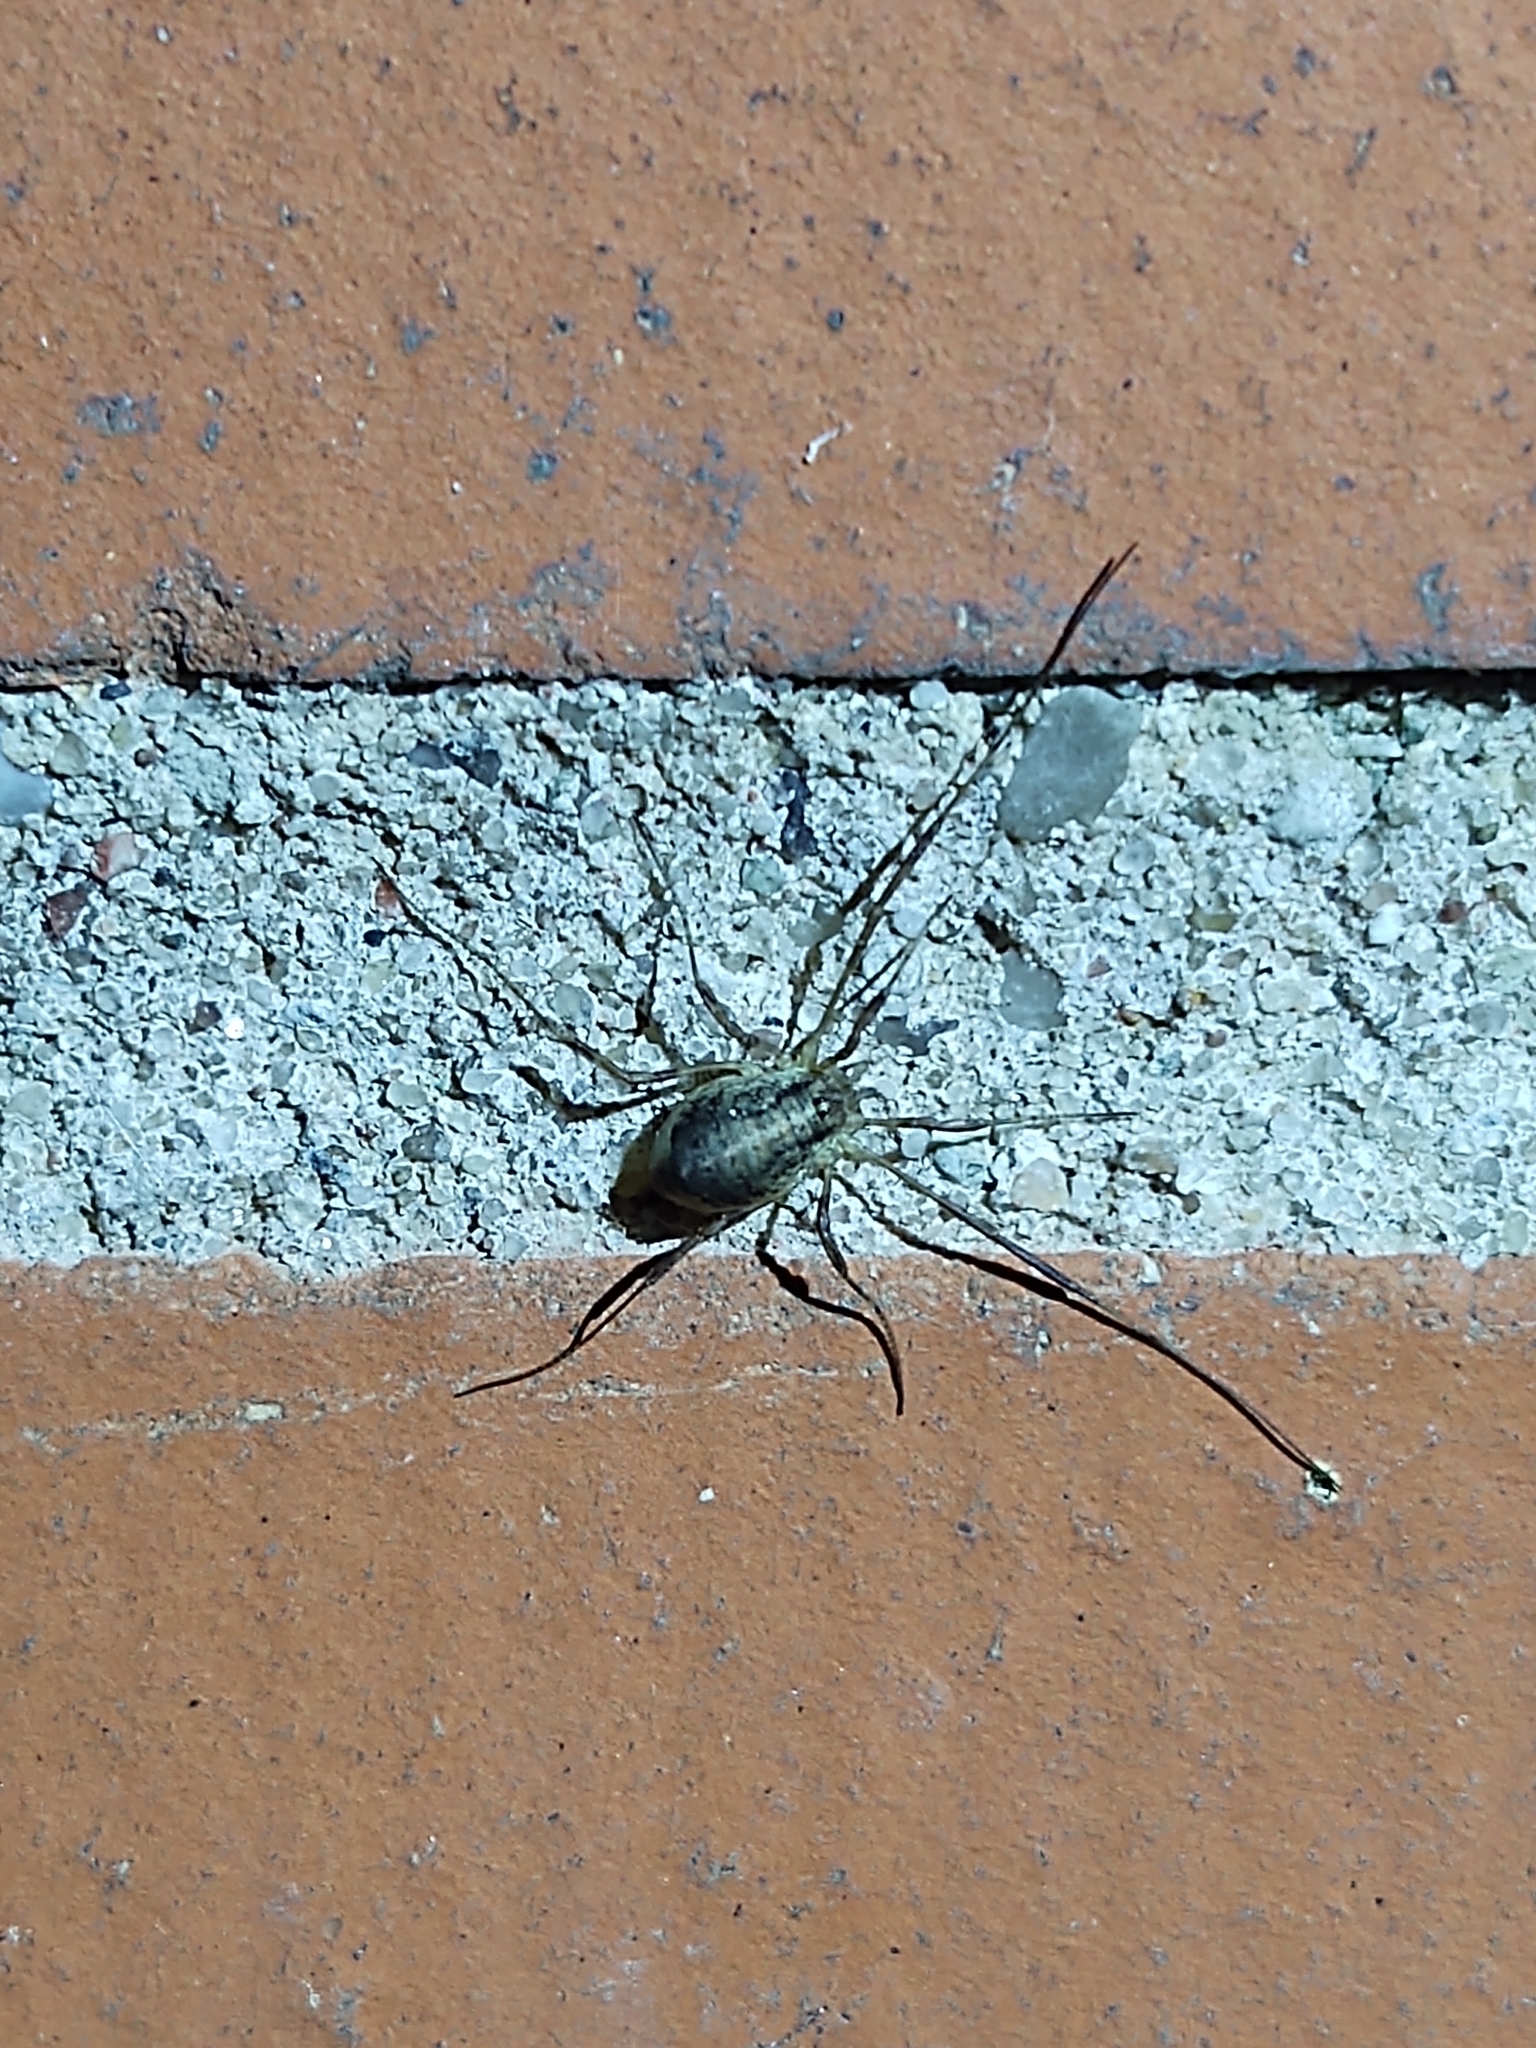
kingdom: Animalia
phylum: Arthropoda
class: Arachnida
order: Opiliones
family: Phalangiidae
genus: Paroligolophus
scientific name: Paroligolophus agrestis
